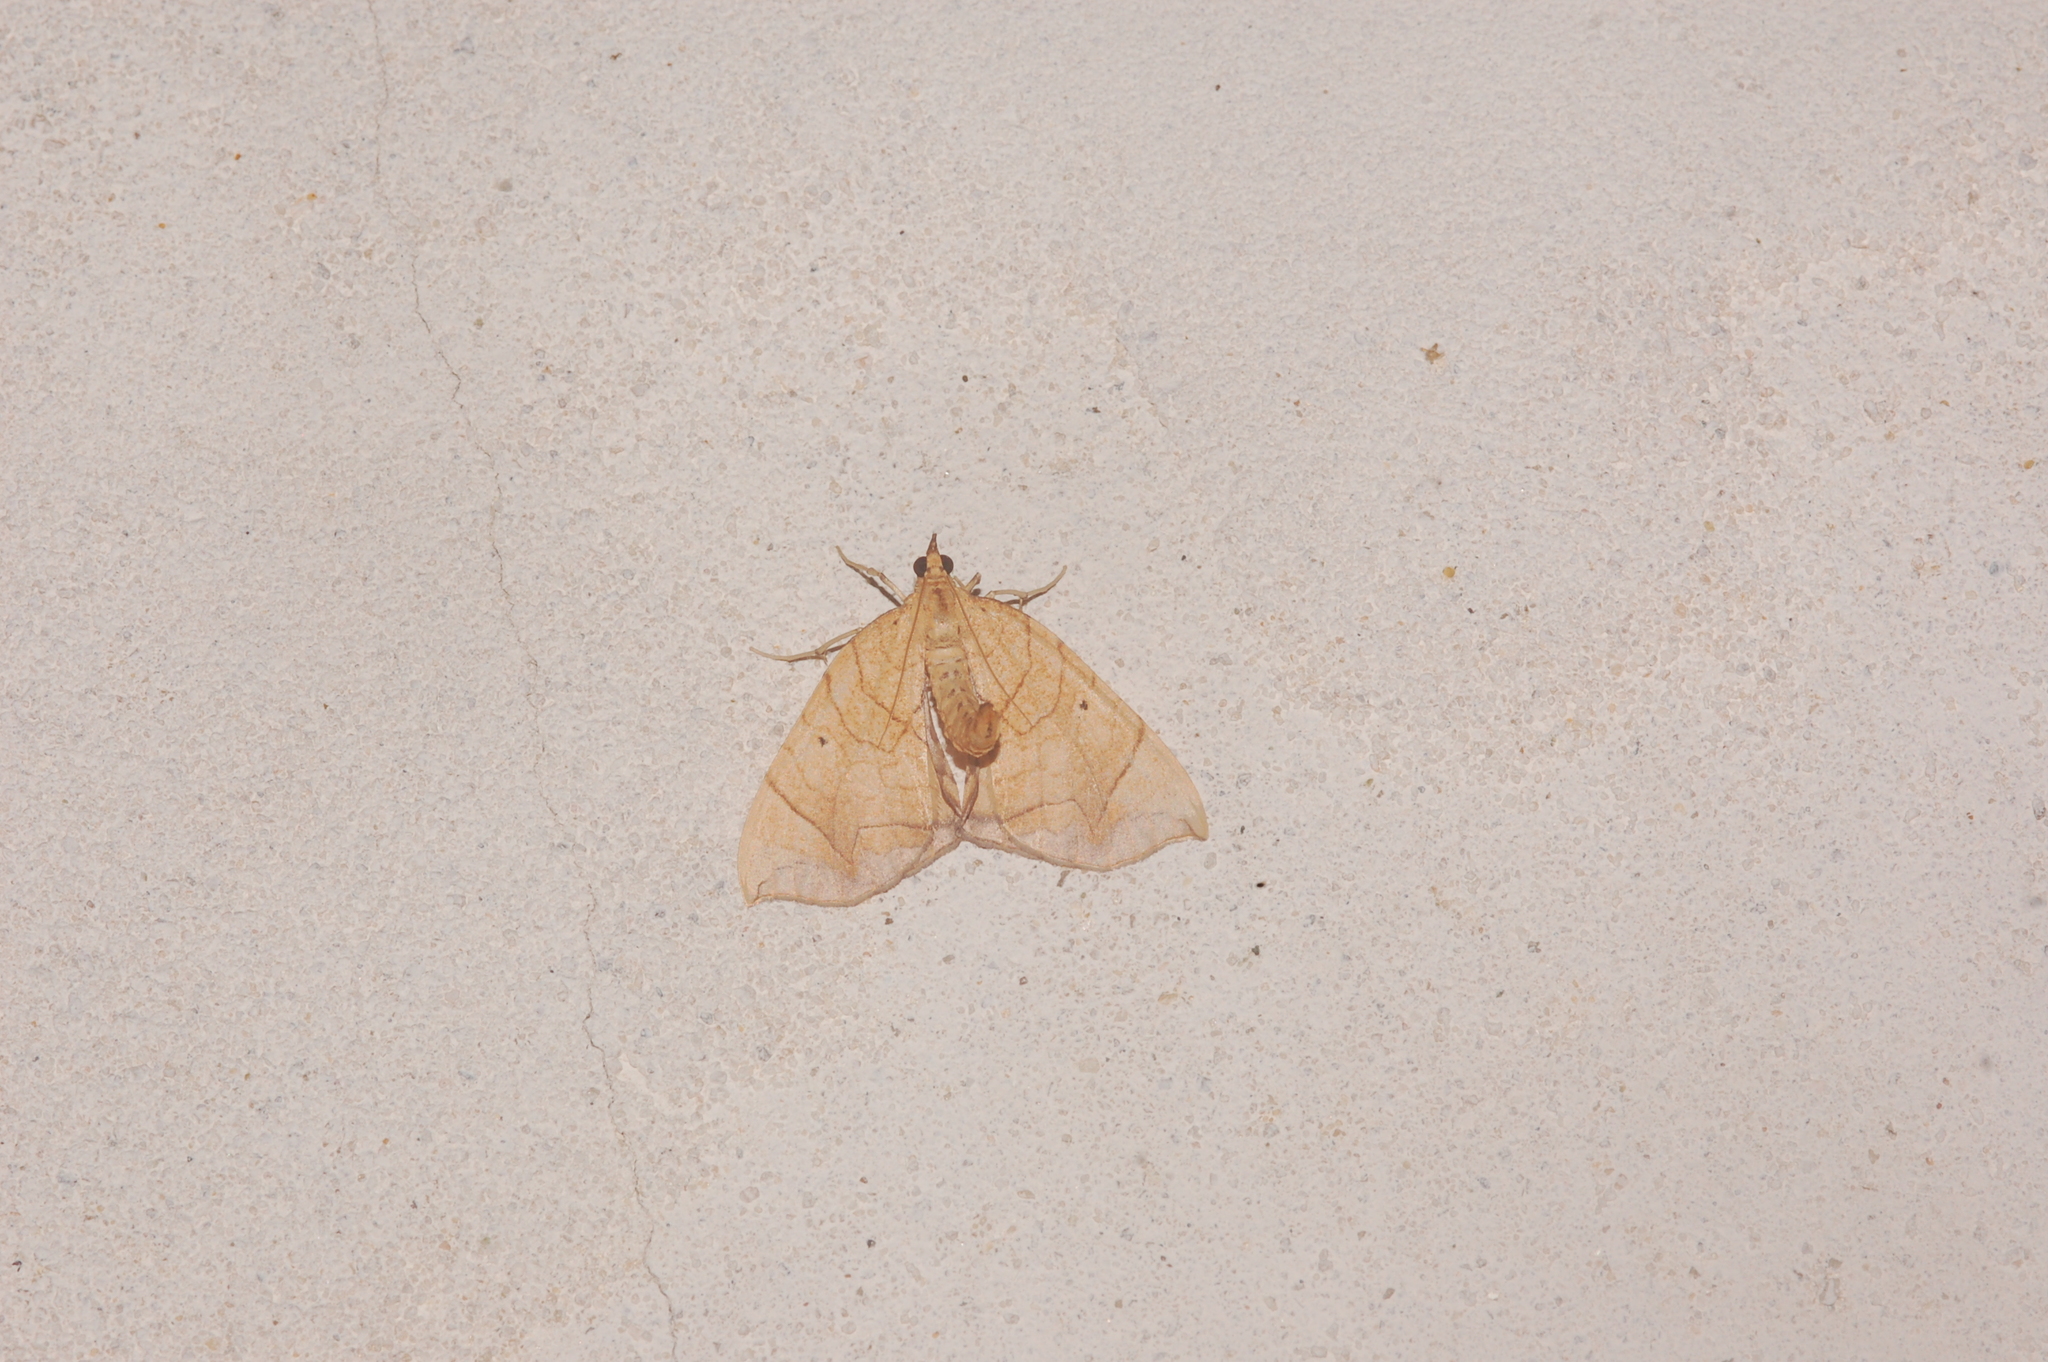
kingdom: Animalia
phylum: Arthropoda
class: Insecta
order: Lepidoptera
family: Geometridae
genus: Eulithis
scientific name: Eulithis gracilineata
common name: Greater grapevine looper moth
